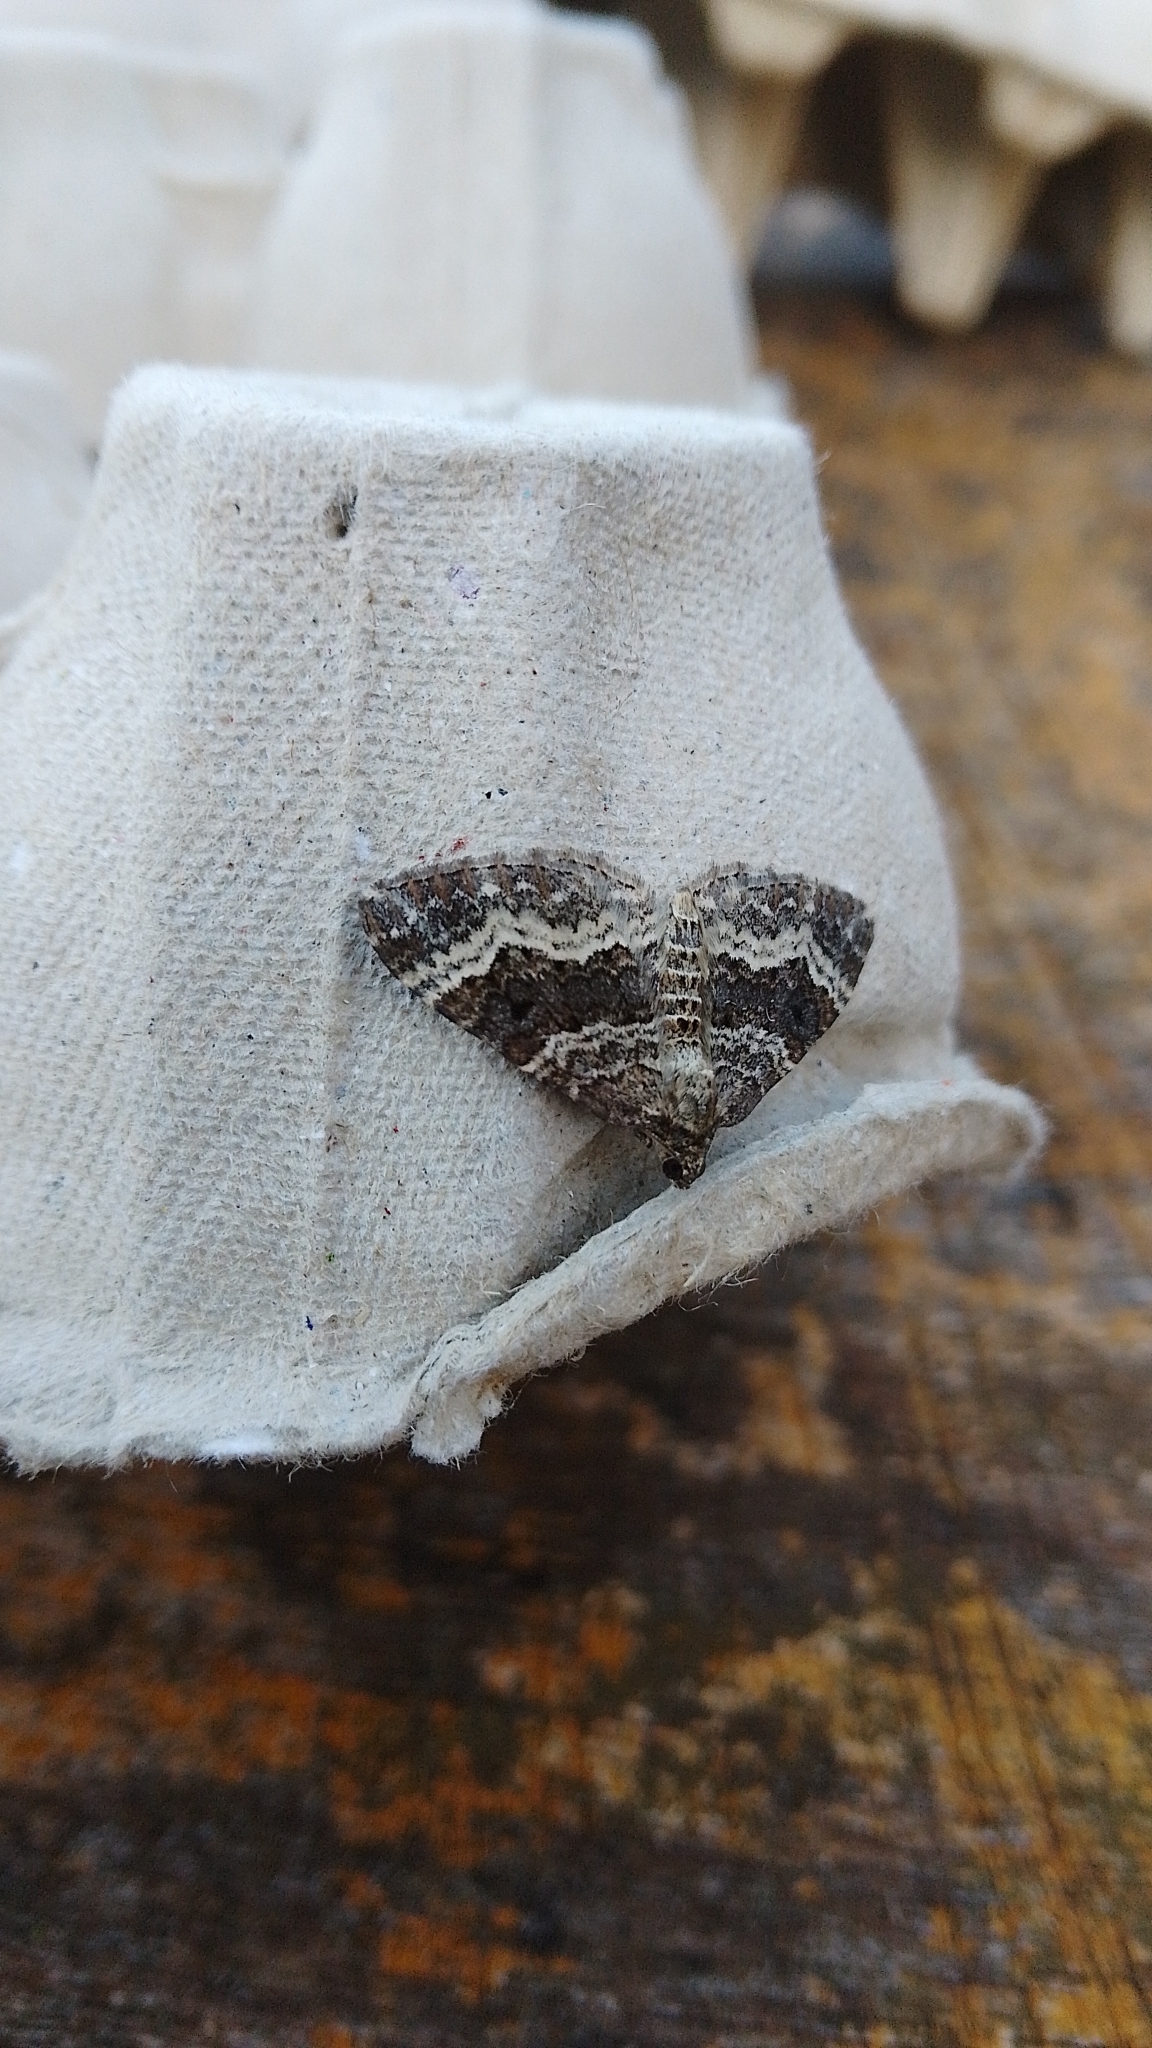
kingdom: Animalia
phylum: Arthropoda
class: Insecta
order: Lepidoptera
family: Geometridae
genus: Epirrhoe
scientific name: Epirrhoe alternata
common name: Common carpet
